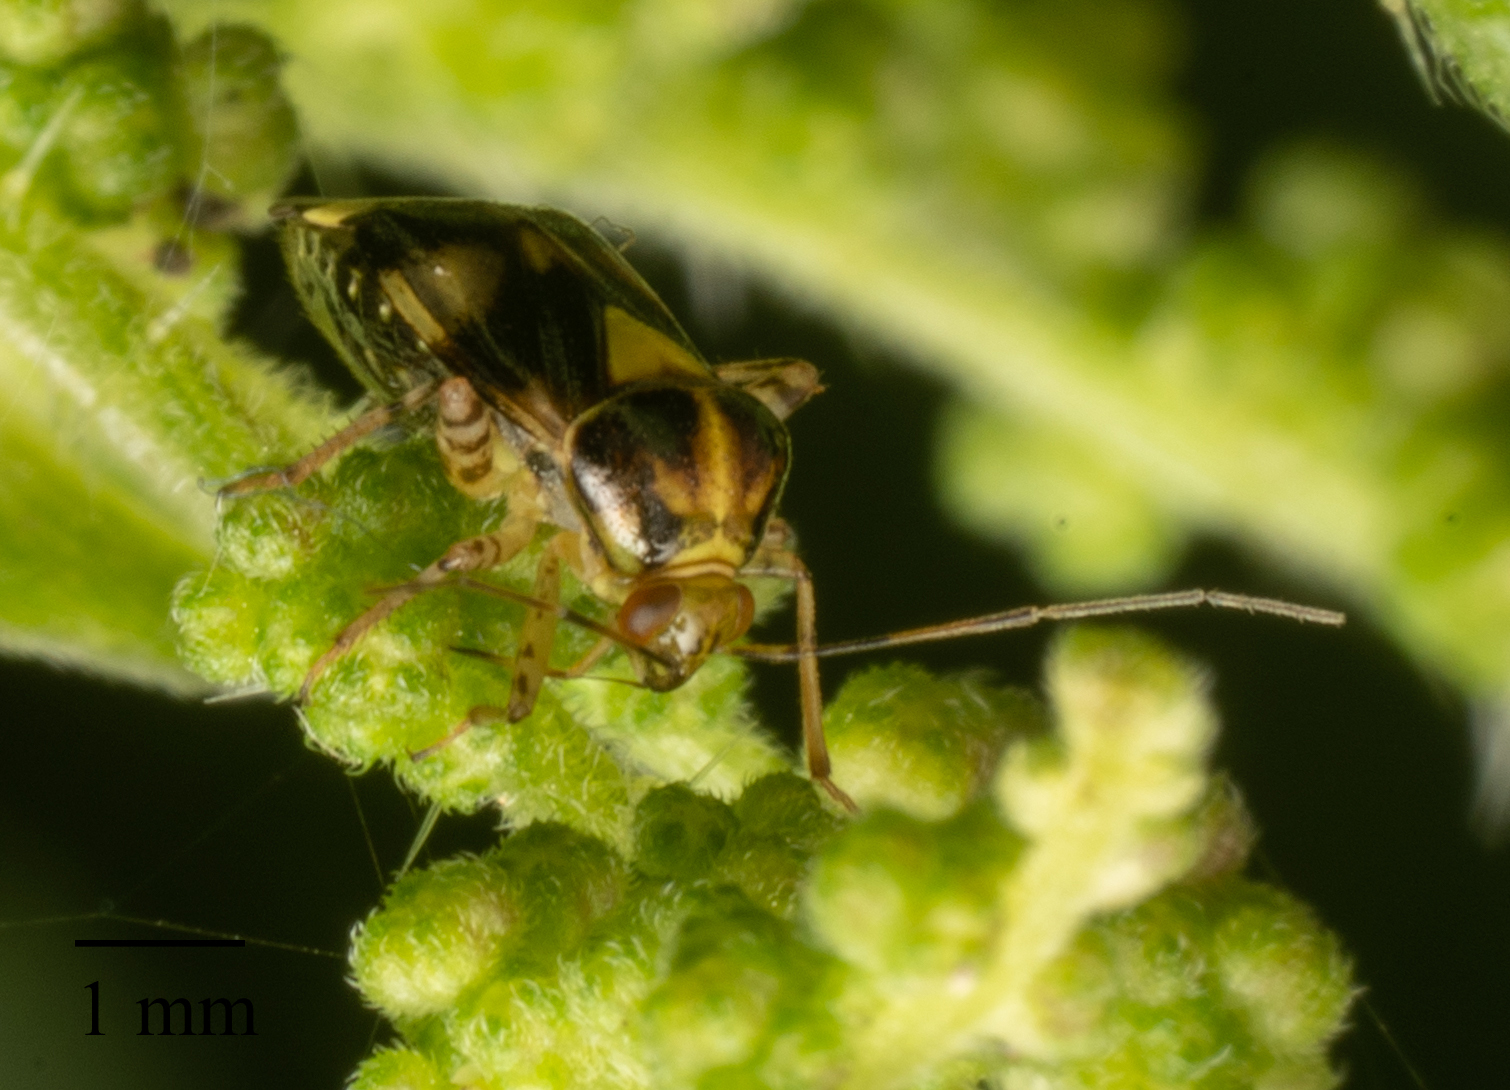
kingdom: Animalia
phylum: Arthropoda
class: Insecta
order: Hemiptera
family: Miridae
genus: Liocoris
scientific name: Liocoris tripustulatus
